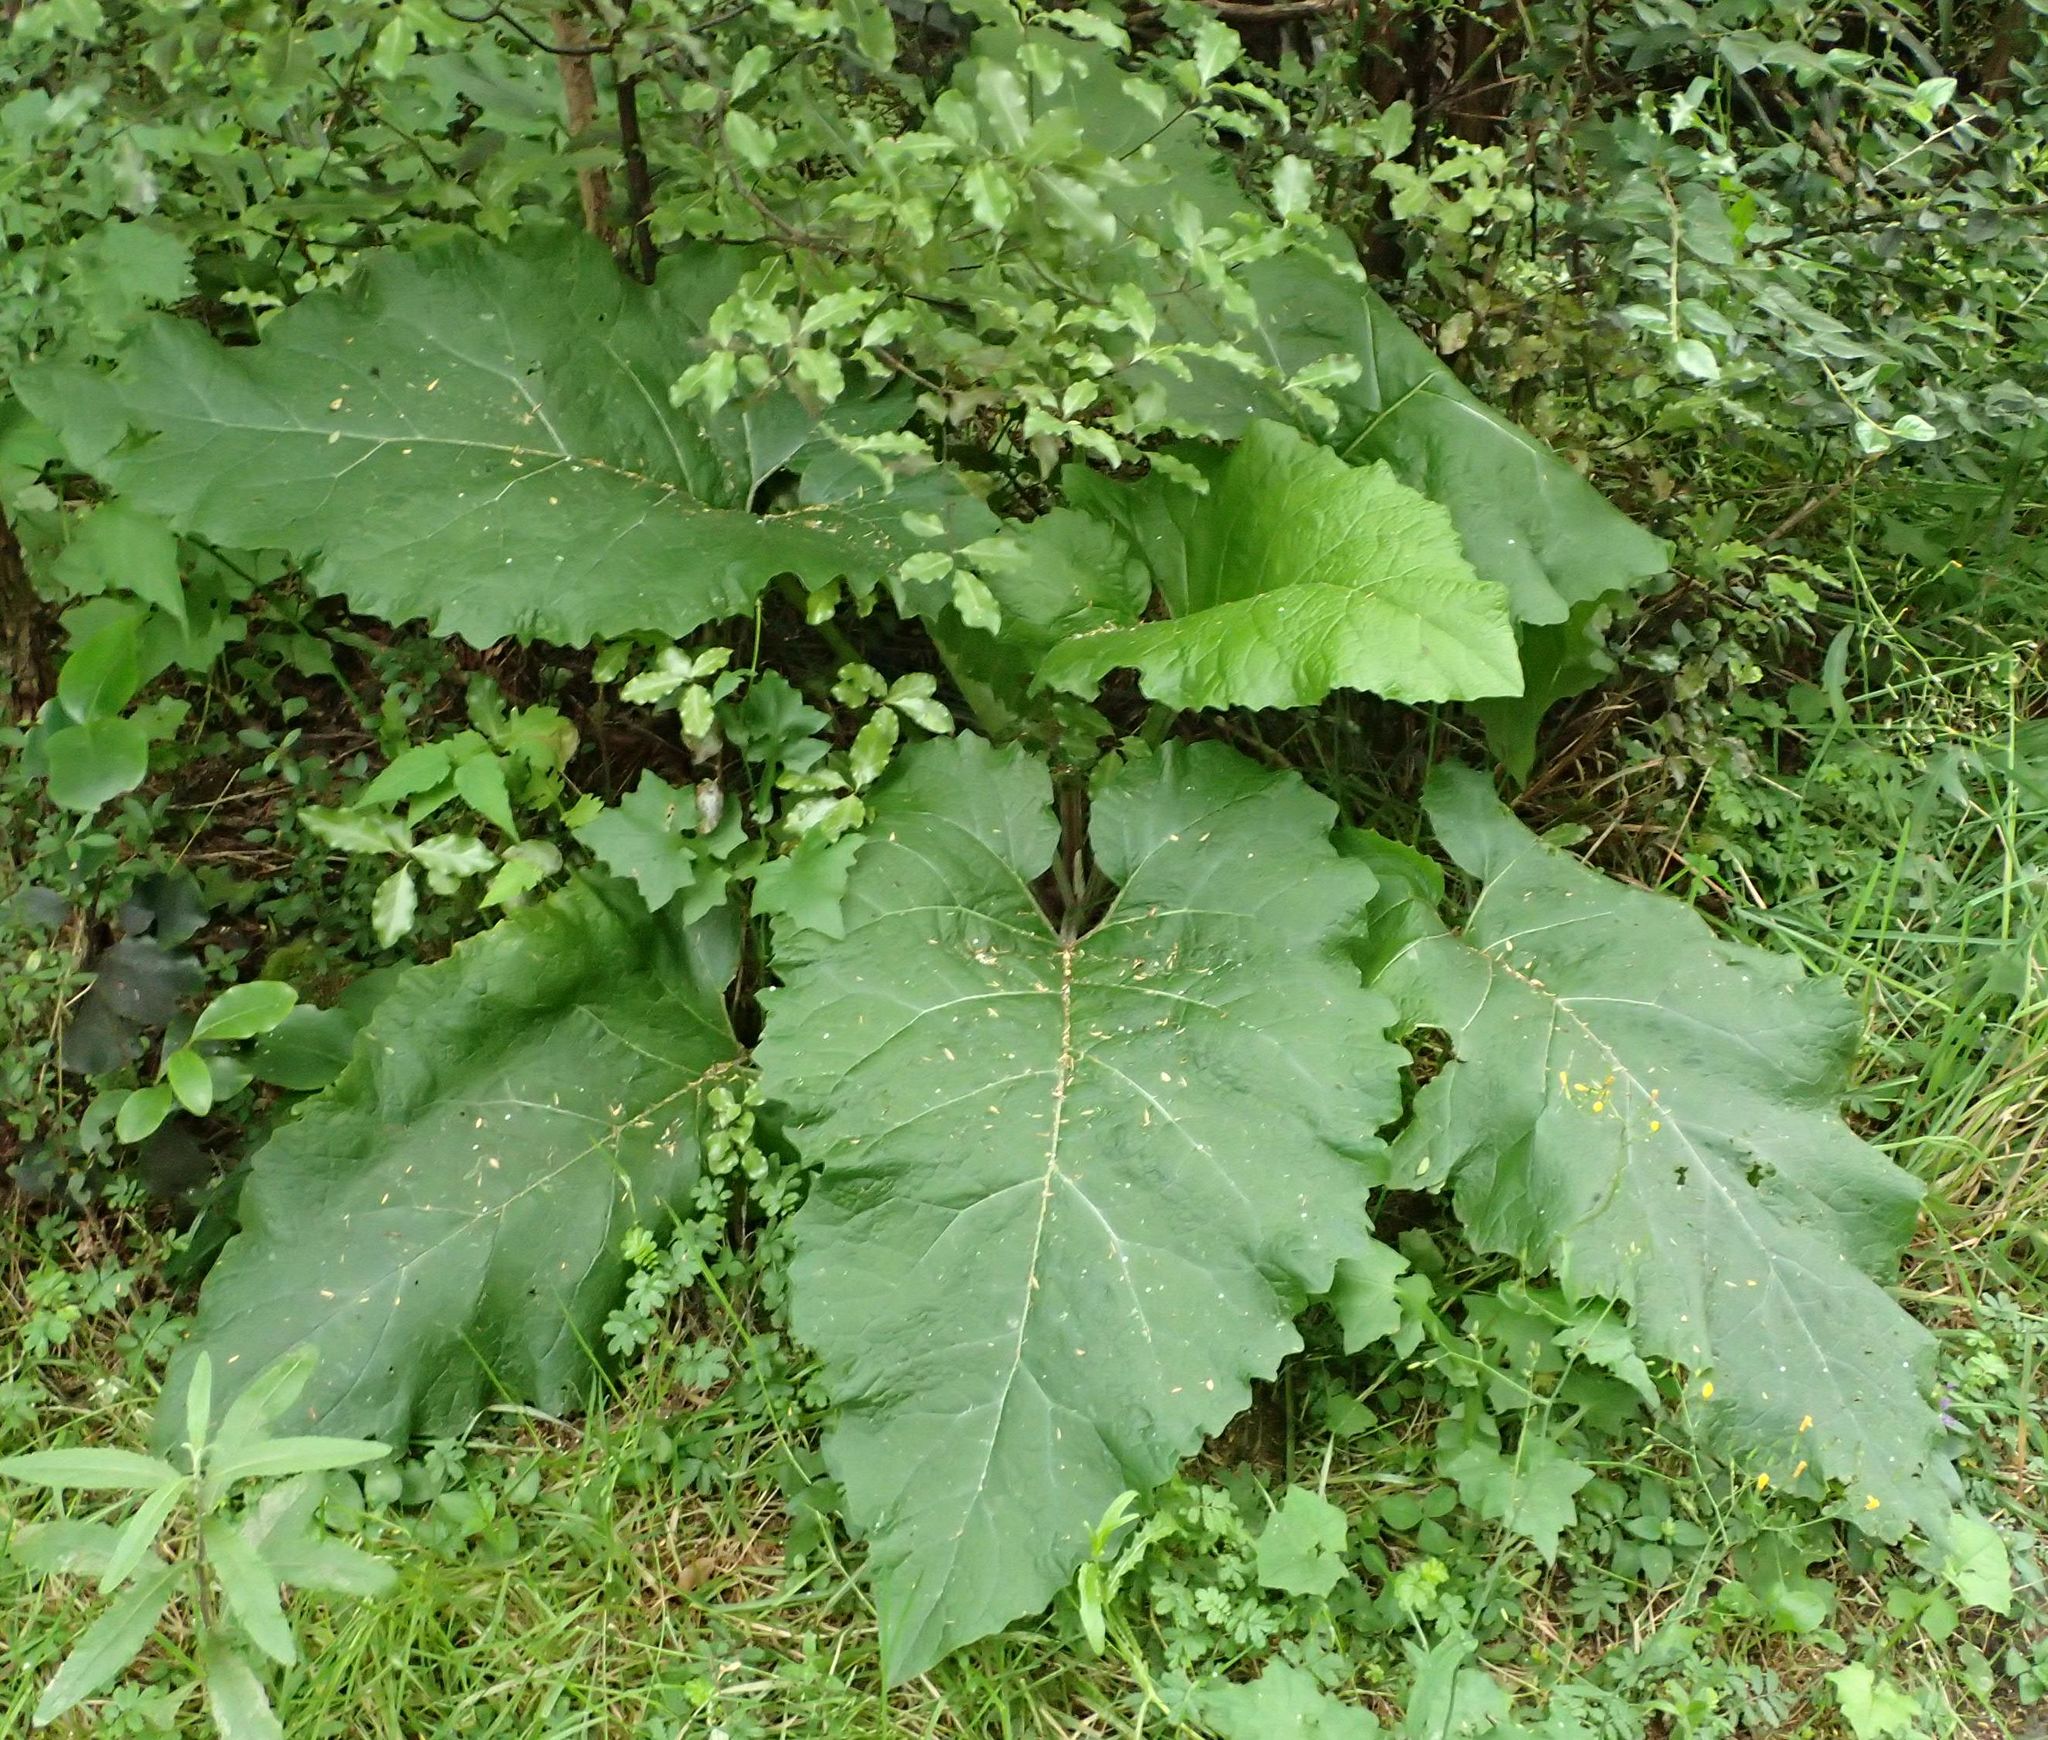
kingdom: Plantae
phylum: Tracheophyta
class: Magnoliopsida
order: Asterales
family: Asteraceae
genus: Arctium
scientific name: Arctium minus
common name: Lesser burdock
